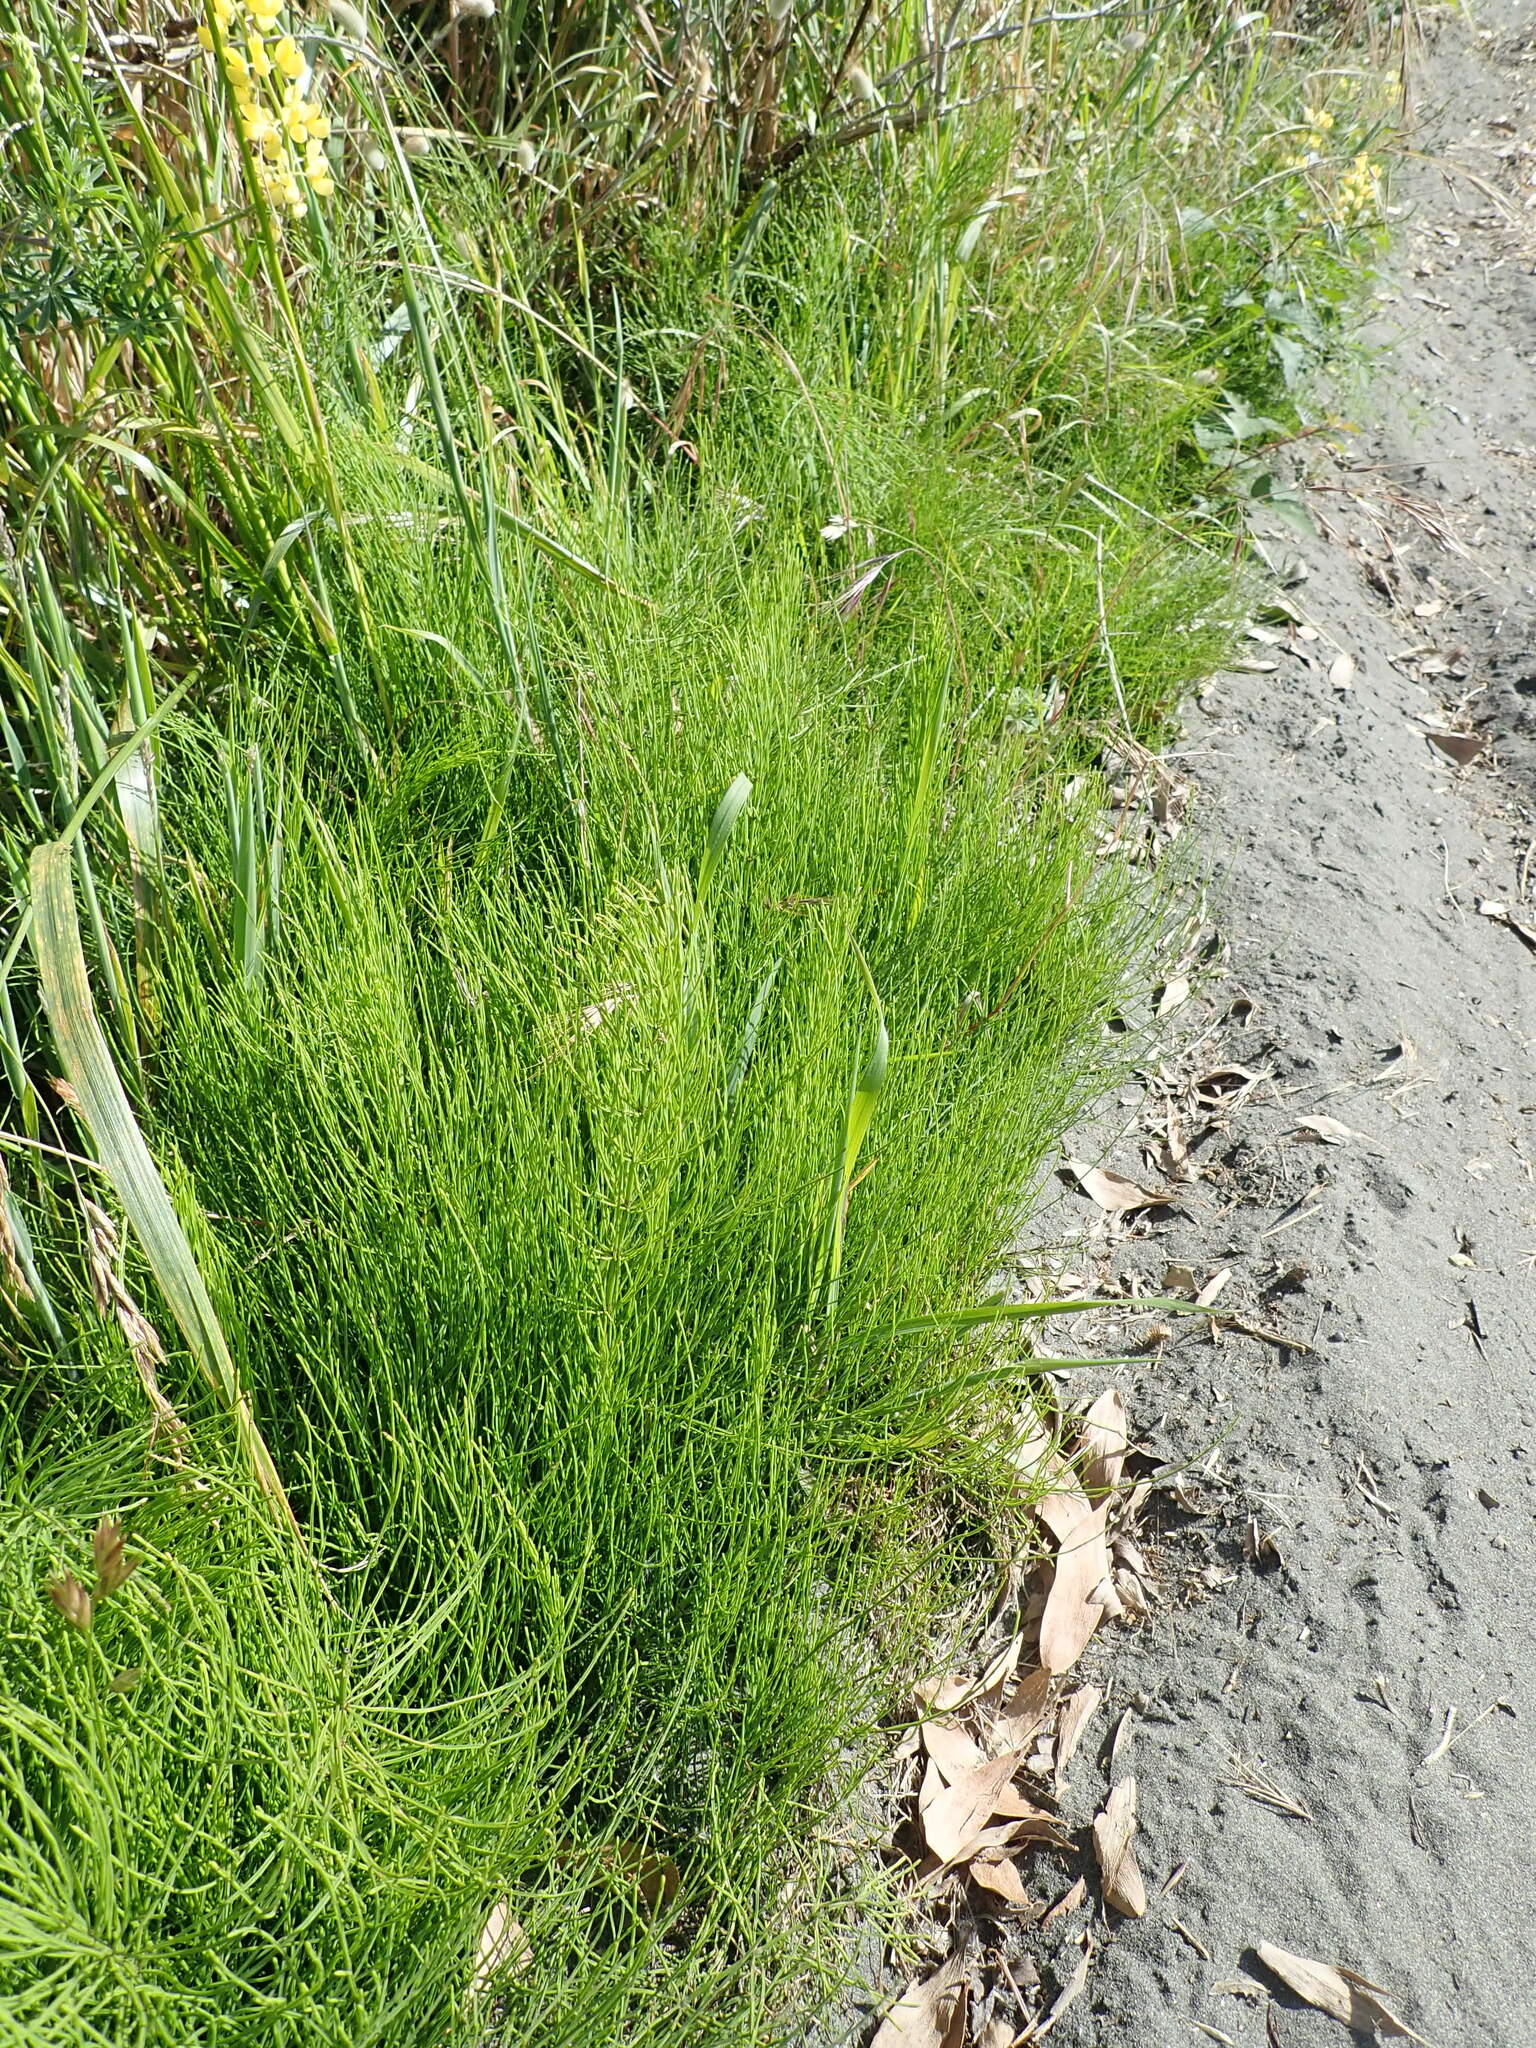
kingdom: Plantae
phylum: Tracheophyta
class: Polypodiopsida
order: Equisetales
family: Equisetaceae
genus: Equisetum
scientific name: Equisetum arvense
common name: Field horsetail
